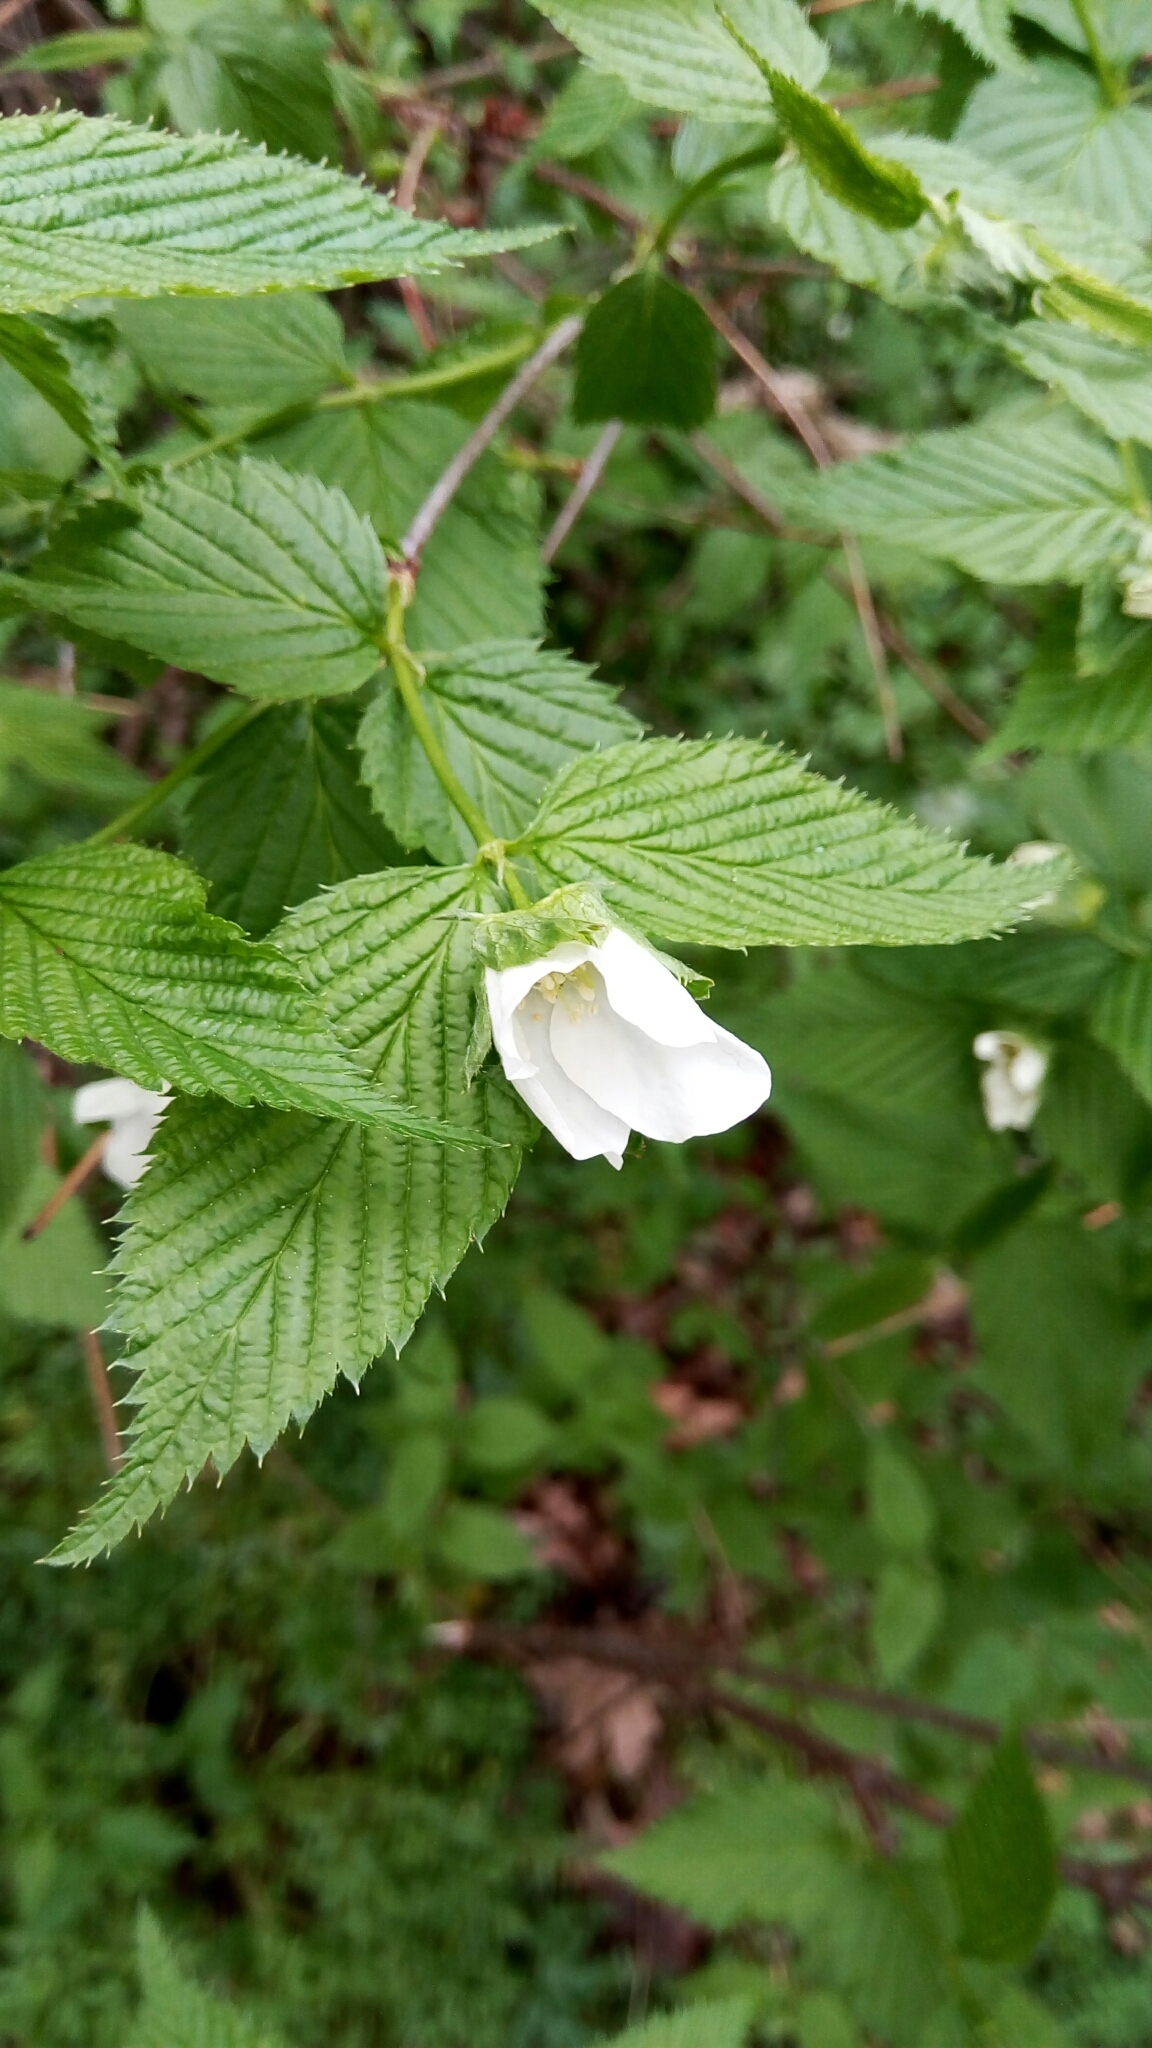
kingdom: Plantae
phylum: Tracheophyta
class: Magnoliopsida
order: Rosales
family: Rosaceae
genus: Rhodotypos
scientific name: Rhodotypos scandens
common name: Jetbead
